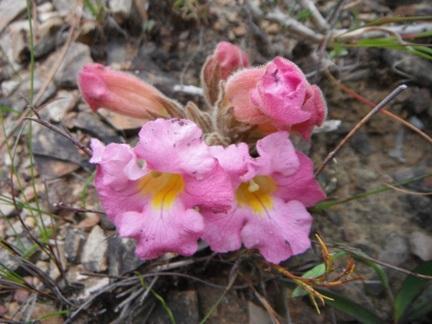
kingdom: Plantae
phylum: Tracheophyta
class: Magnoliopsida
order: Lamiales
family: Orobanchaceae
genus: Harveya
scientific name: Harveya purpurea
